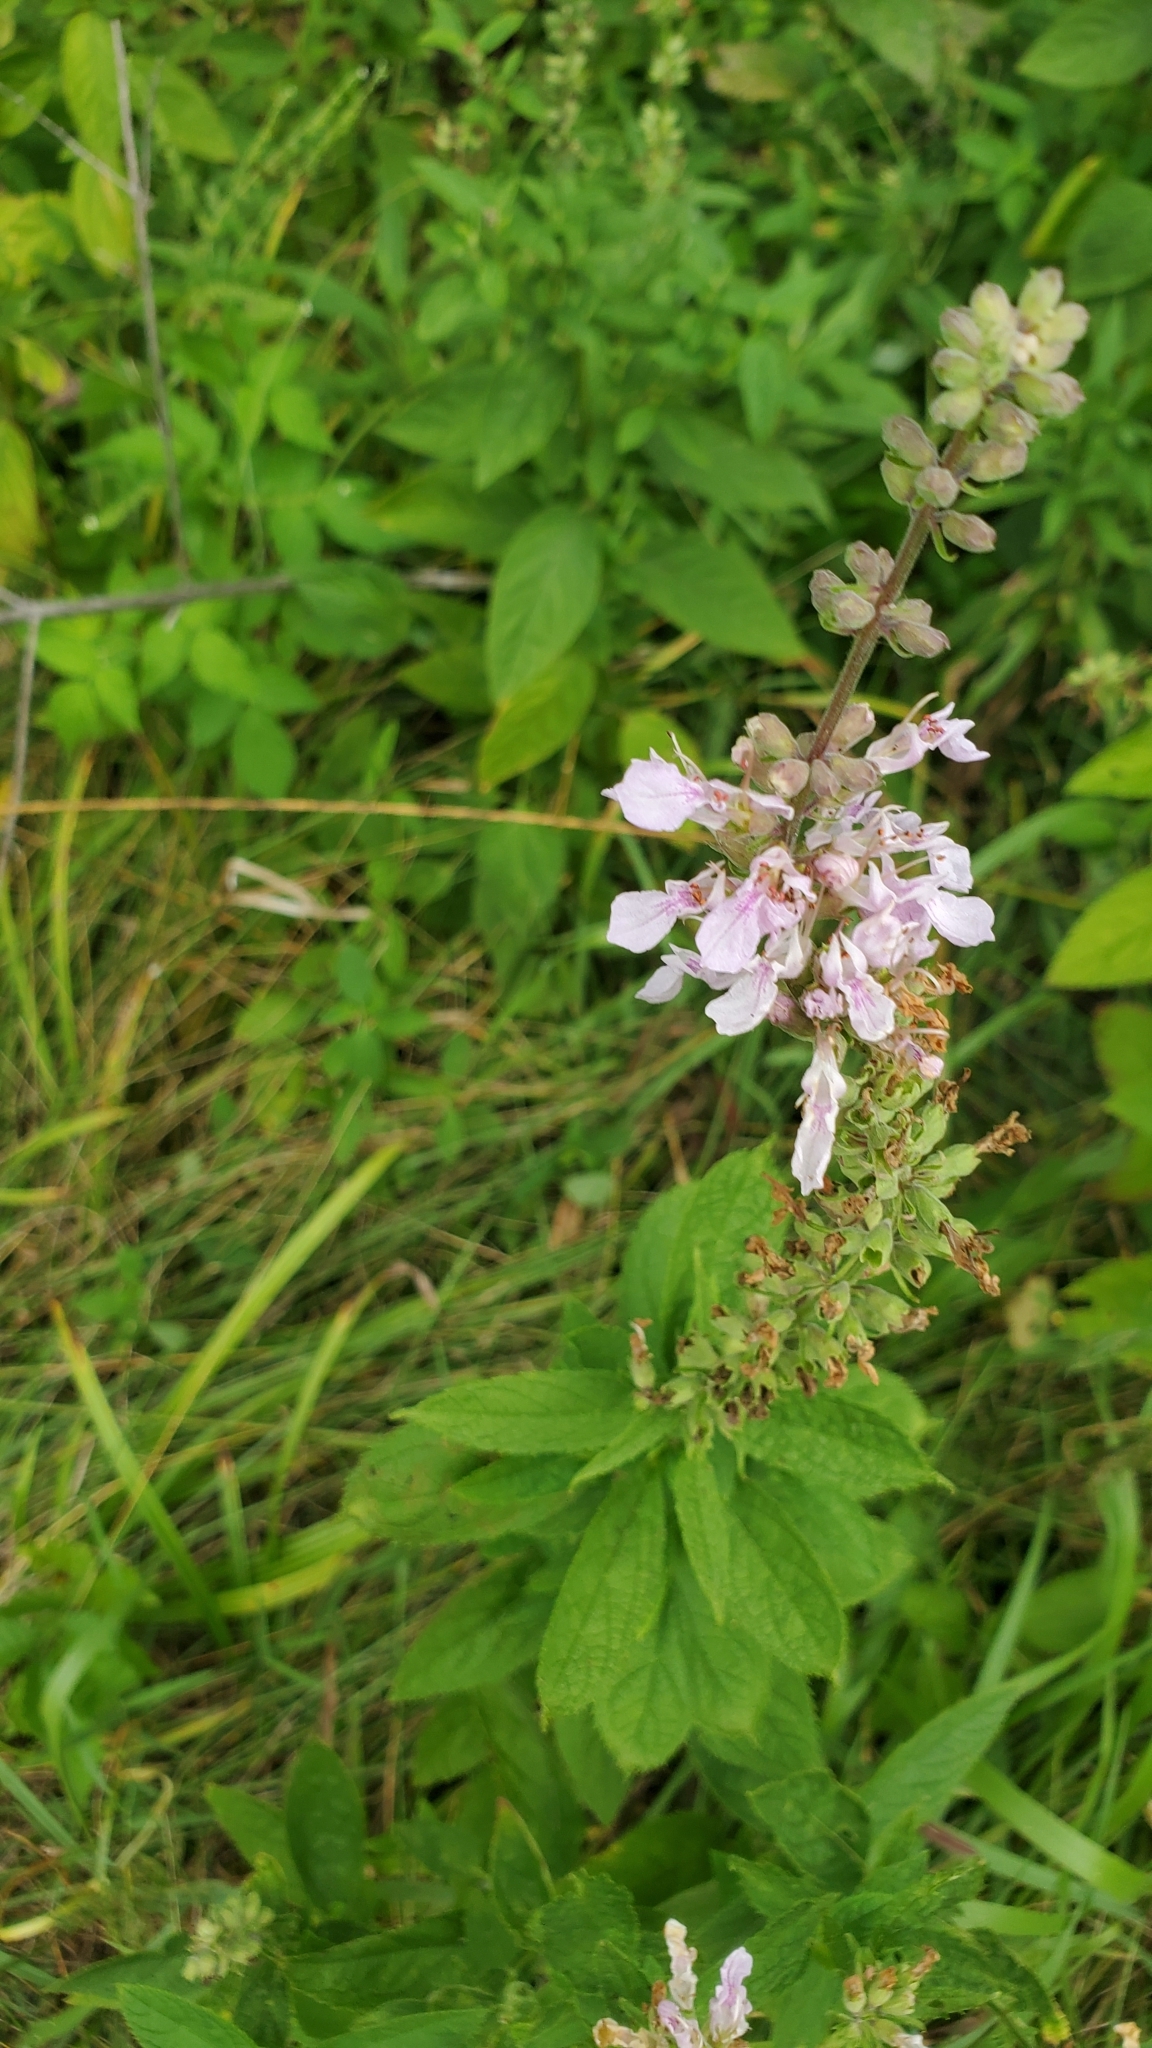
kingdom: Plantae
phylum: Tracheophyta
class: Magnoliopsida
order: Lamiales
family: Lamiaceae
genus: Teucrium
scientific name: Teucrium canadense
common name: American germander
